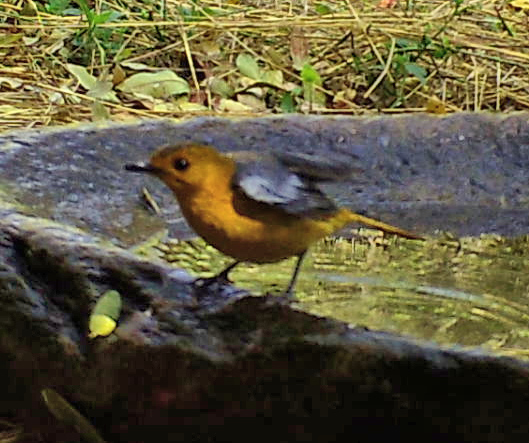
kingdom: Animalia
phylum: Chordata
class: Aves
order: Passeriformes
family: Muscicapidae
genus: Cossypha
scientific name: Cossypha natalensis
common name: Red-capped robin-chat
